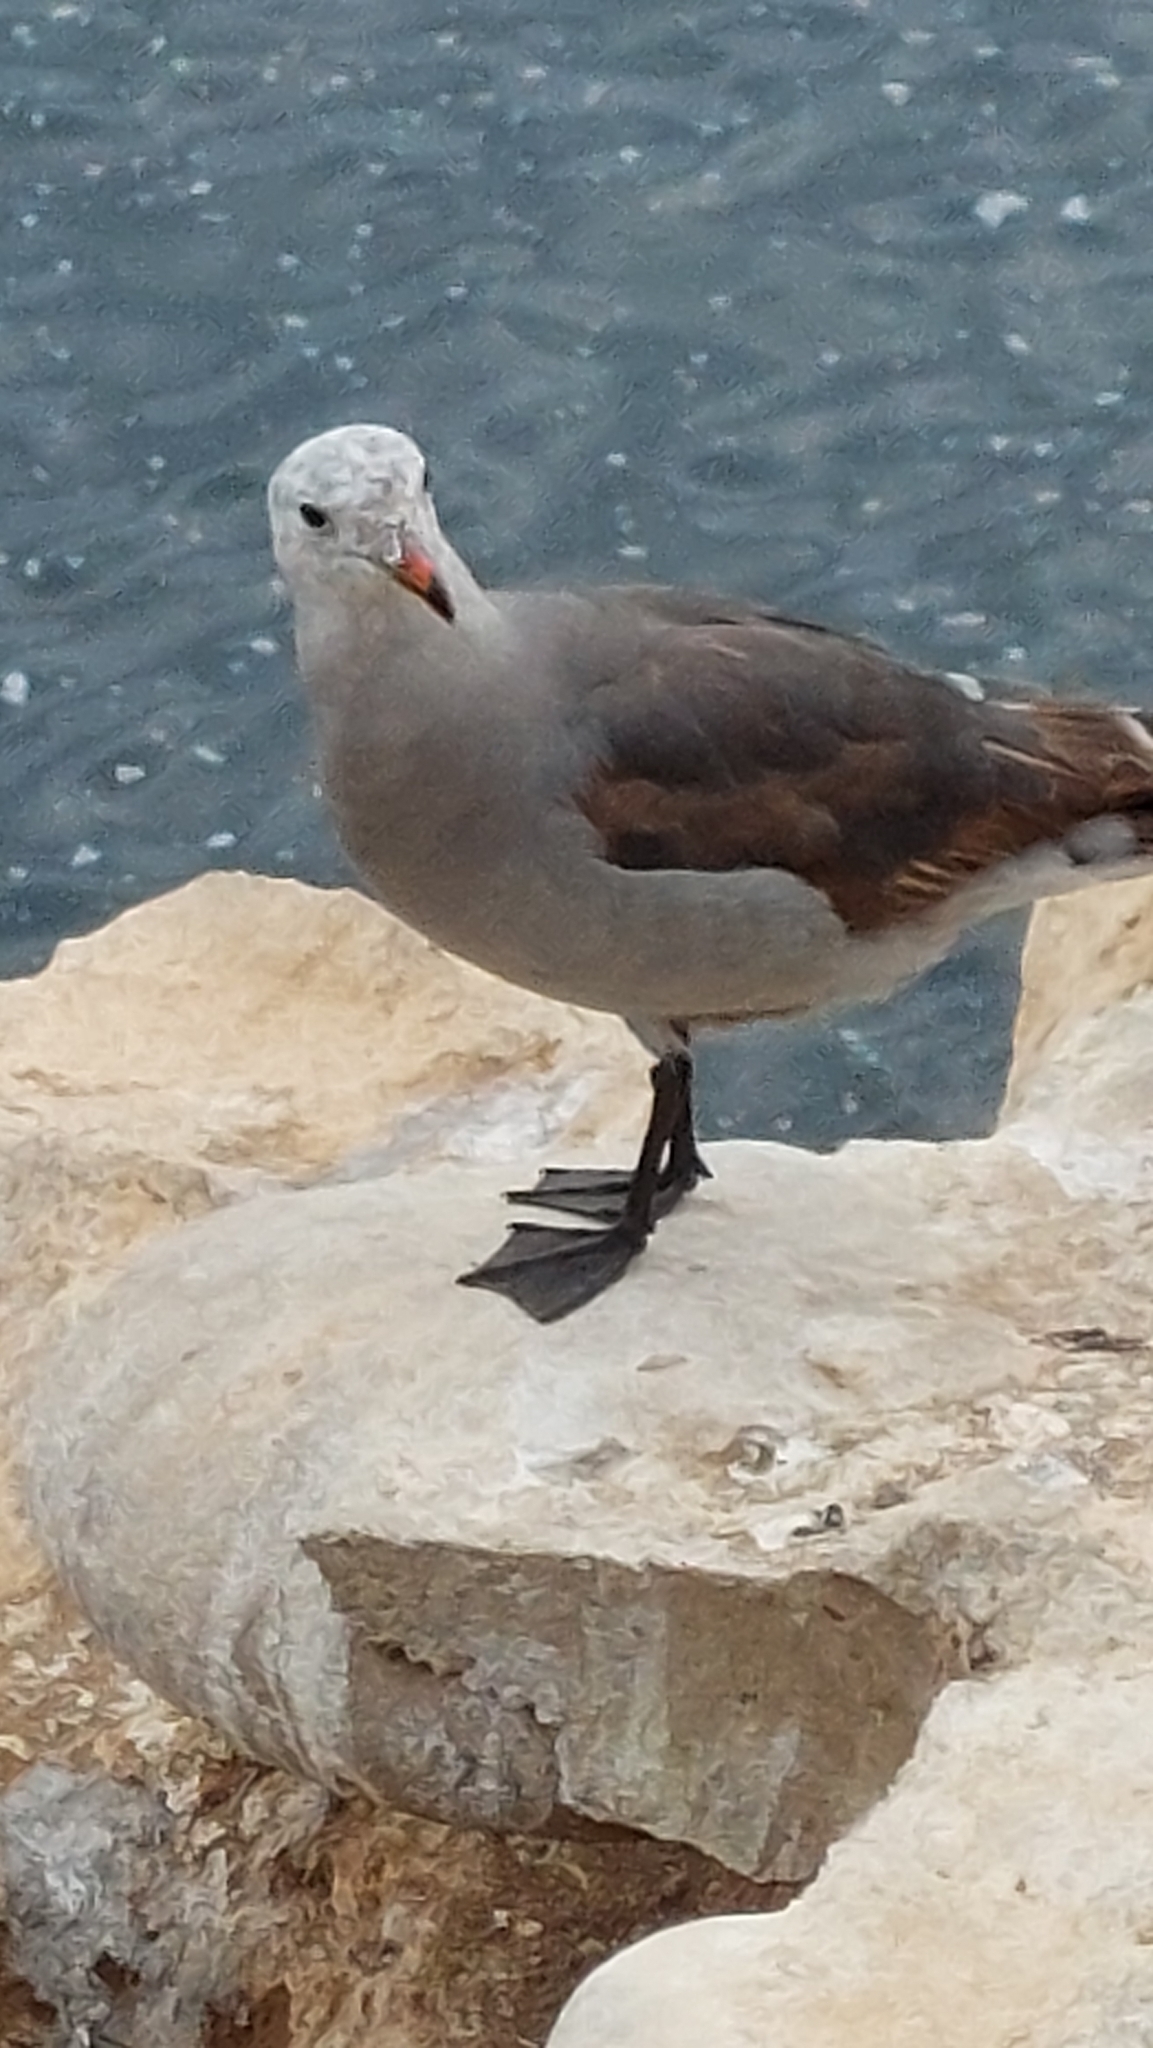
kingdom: Animalia
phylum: Chordata
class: Aves
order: Charadriiformes
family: Laridae
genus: Larus
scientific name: Larus heermanni
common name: Heermann's gull
